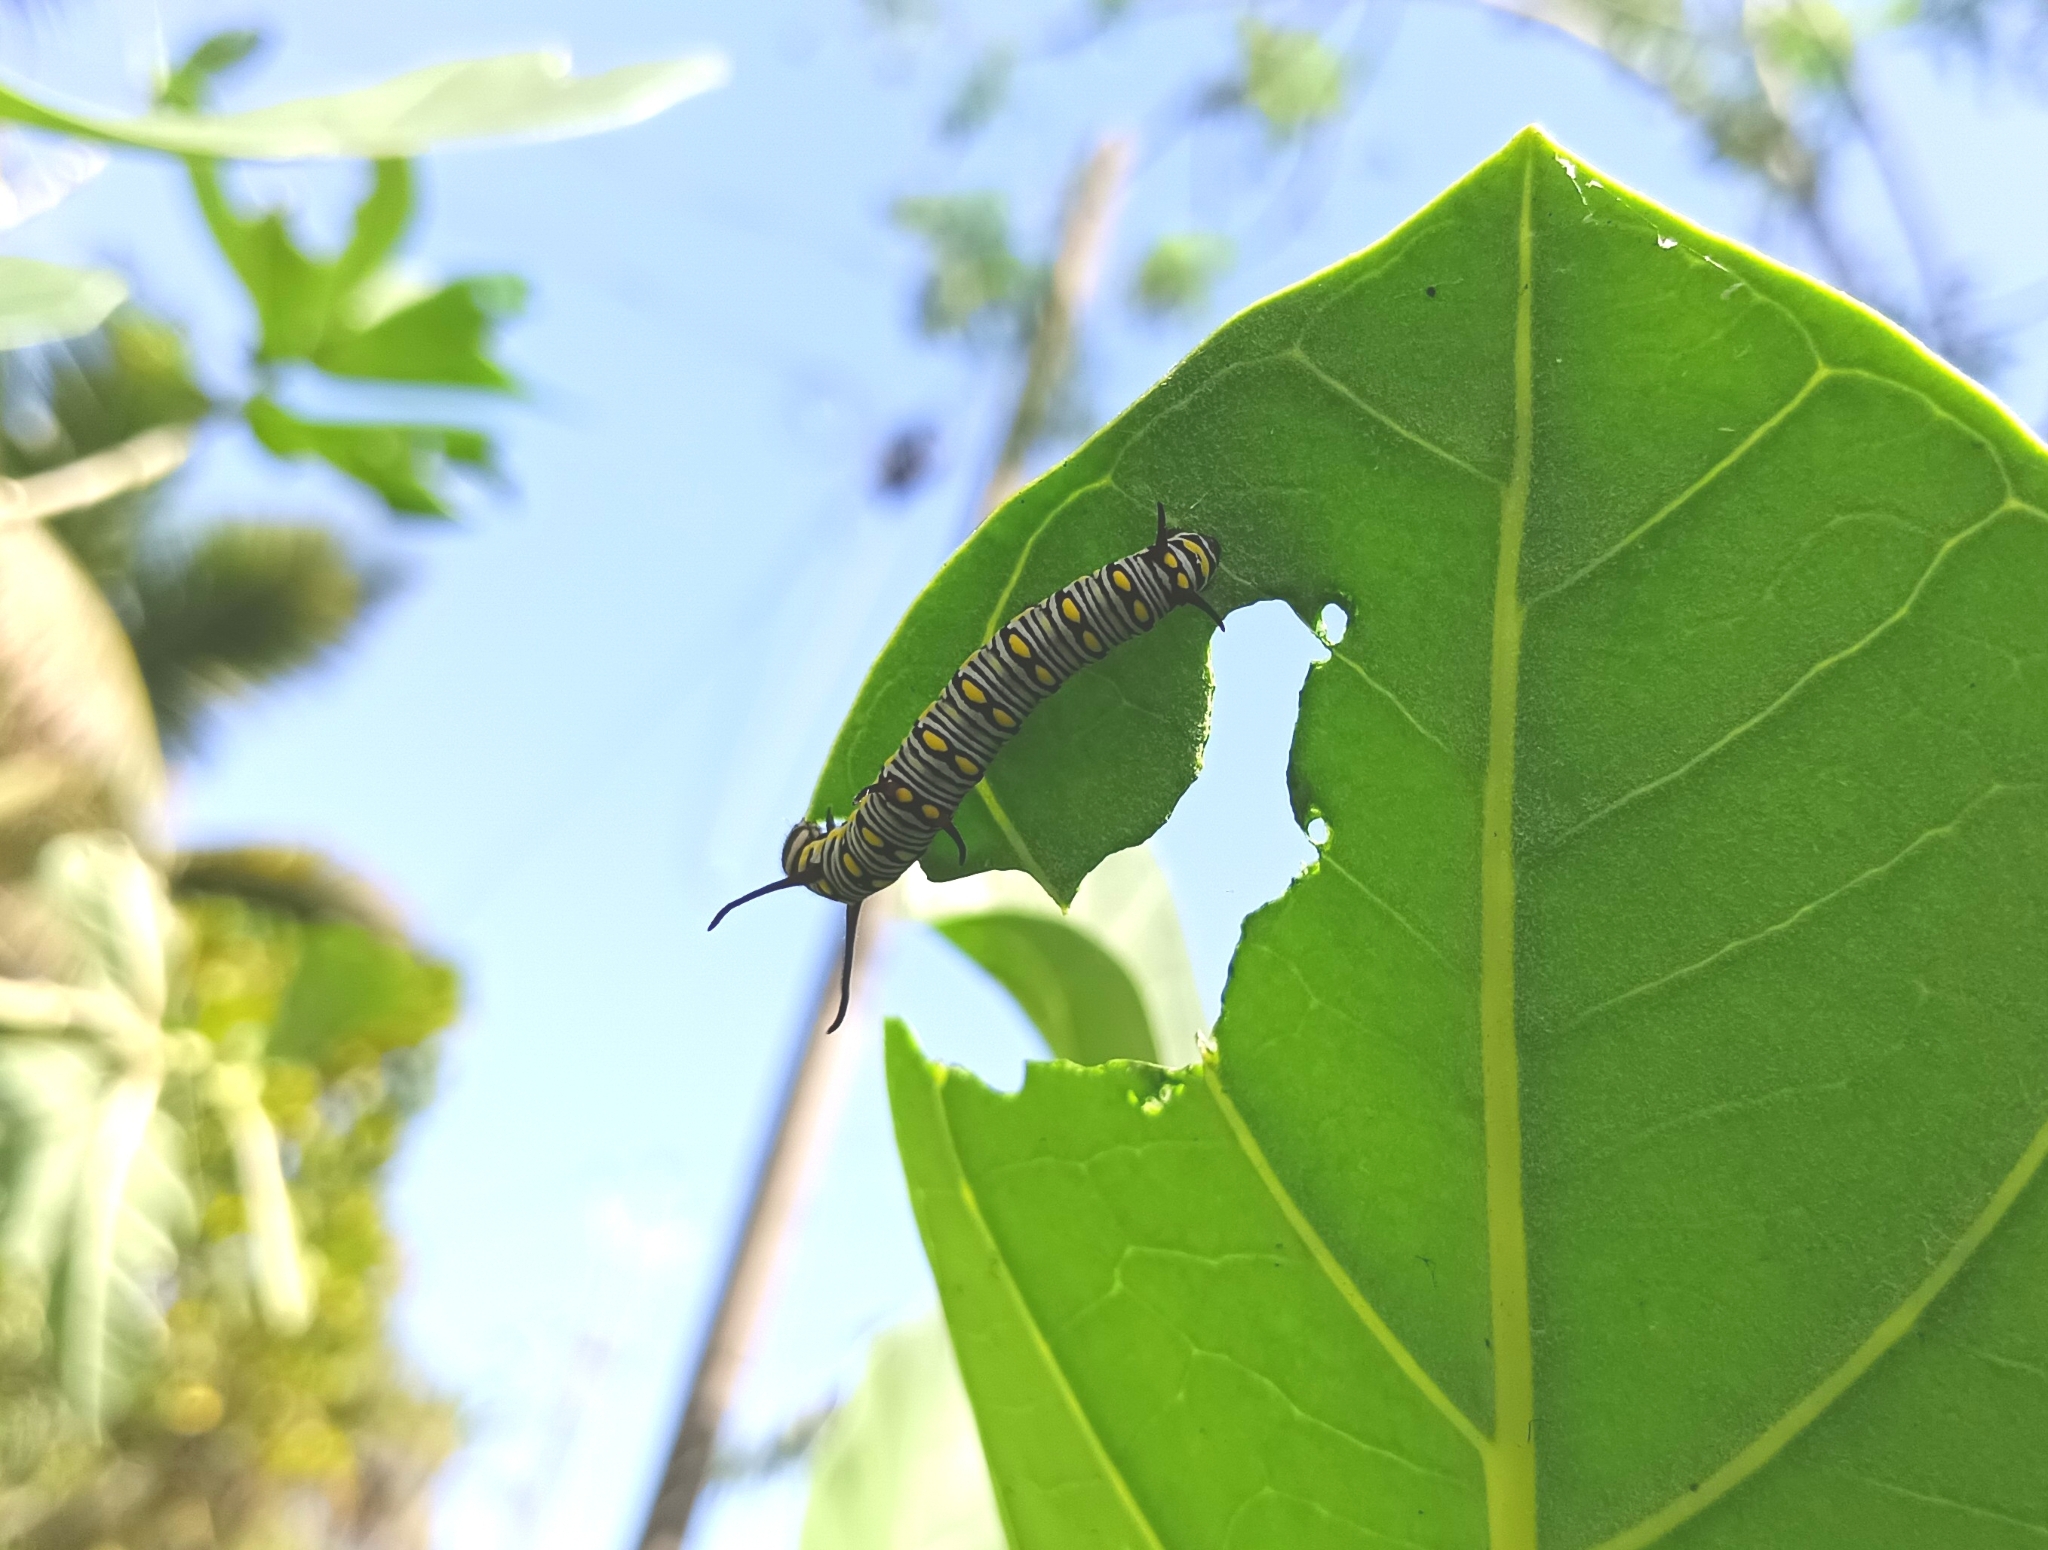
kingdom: Animalia
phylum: Arthropoda
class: Insecta
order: Lepidoptera
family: Nymphalidae
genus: Danaus
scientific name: Danaus chrysippus
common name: Plain tiger
